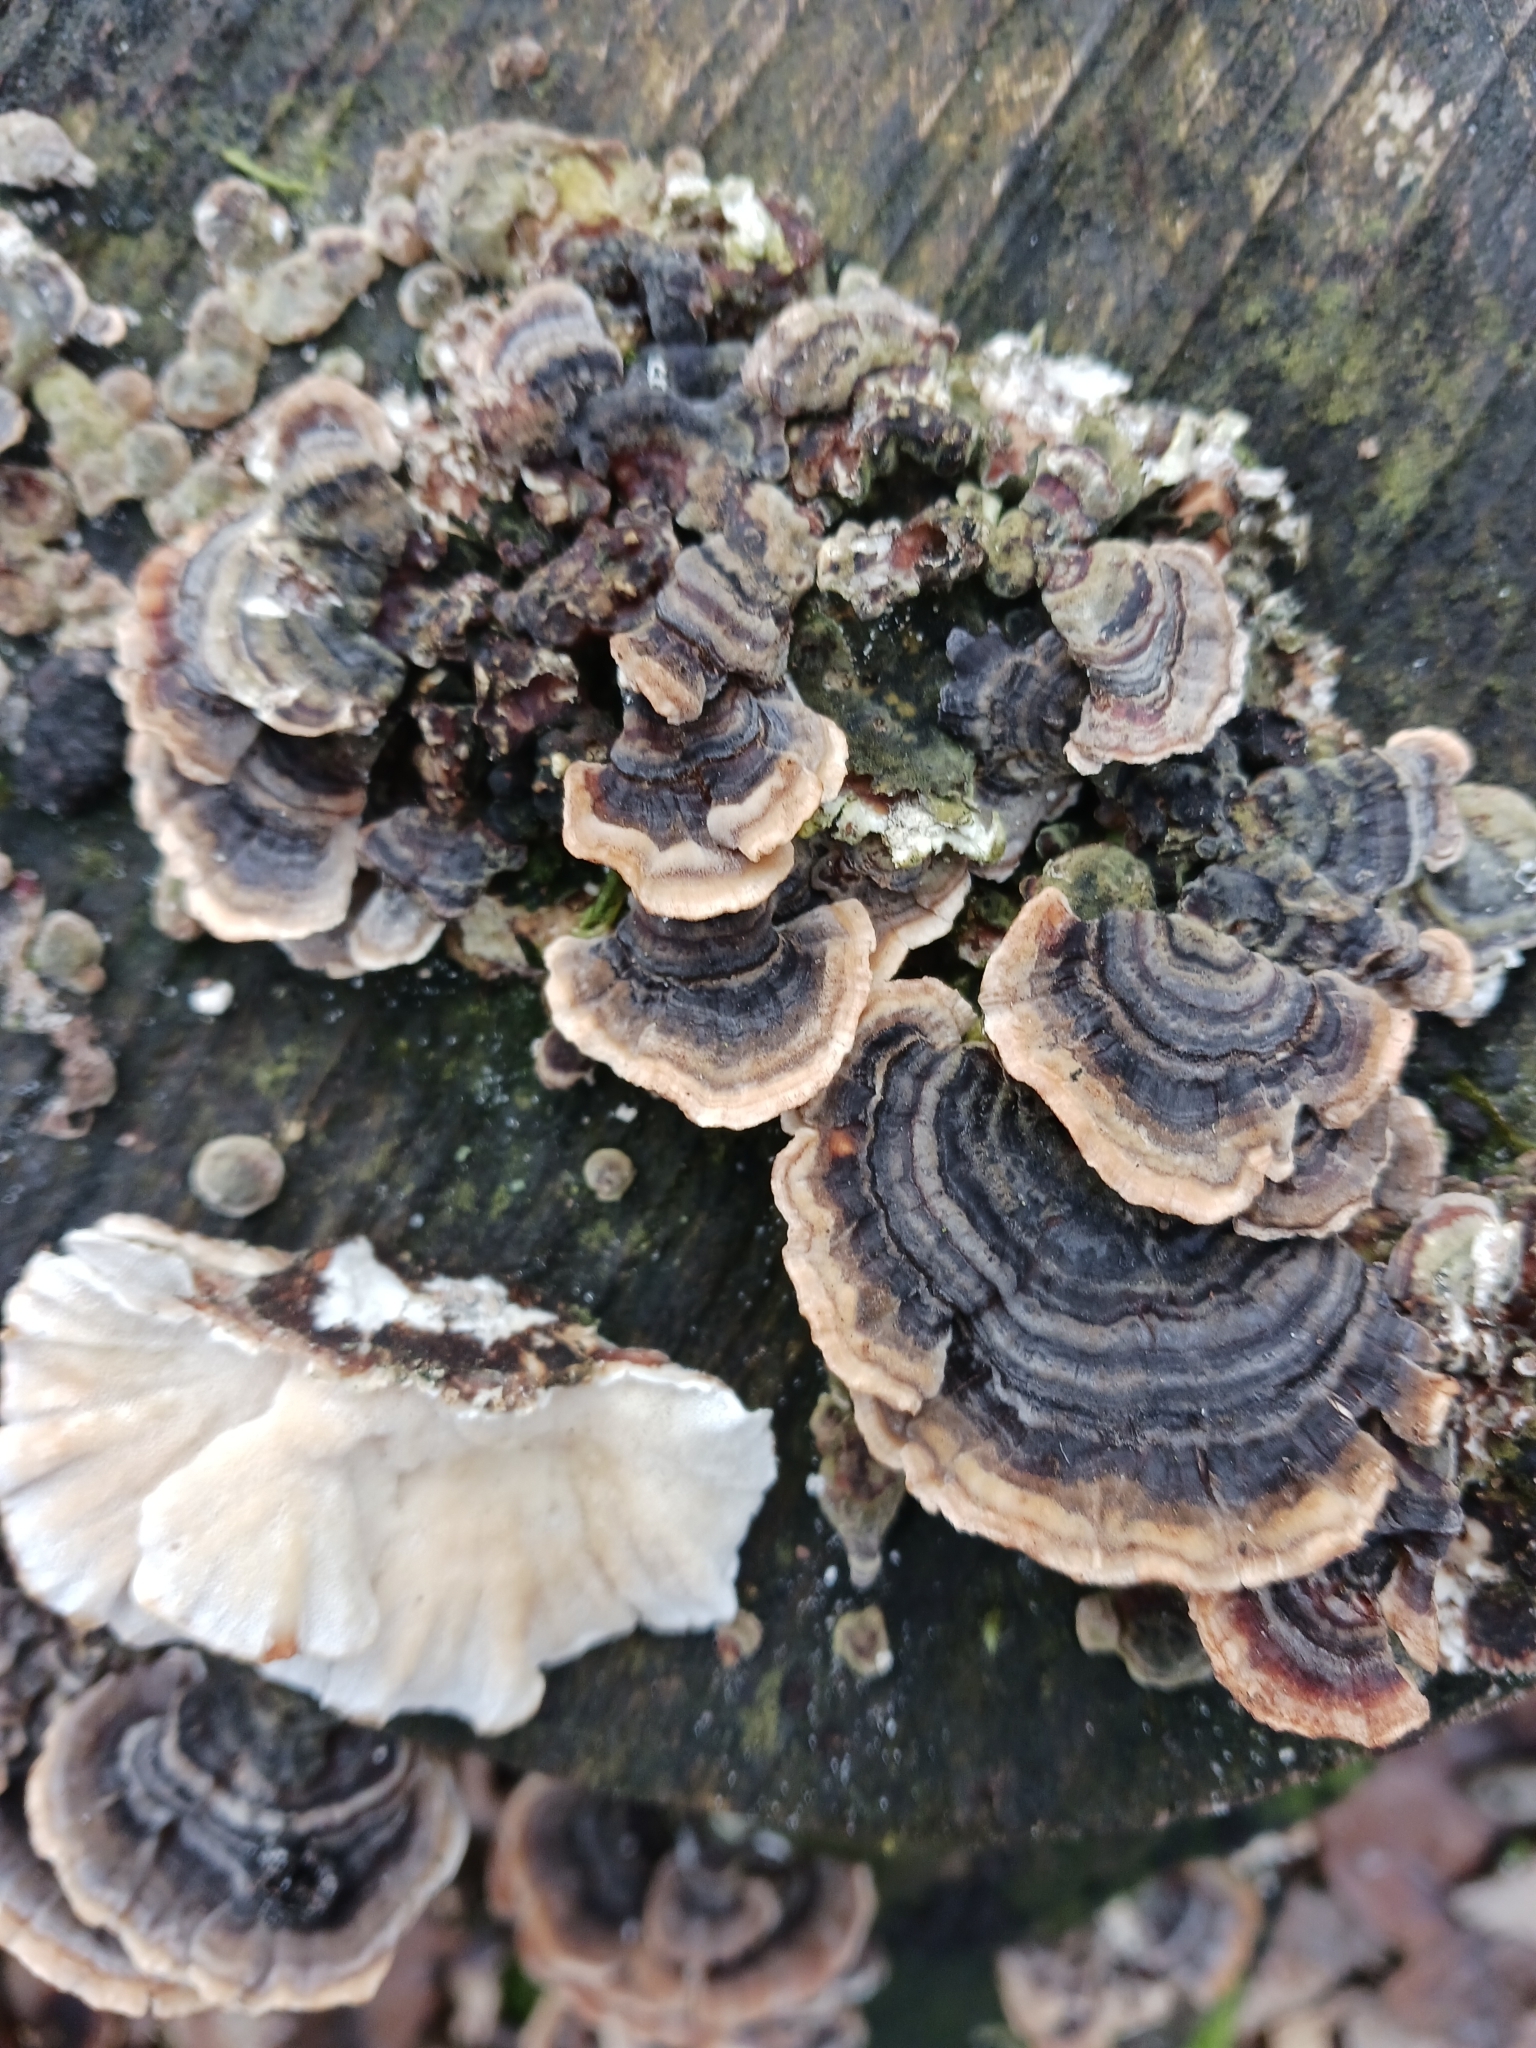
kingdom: Fungi
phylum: Basidiomycota
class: Agaricomycetes
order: Polyporales
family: Polyporaceae
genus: Trametes
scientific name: Trametes versicolor
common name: Turkeytail
